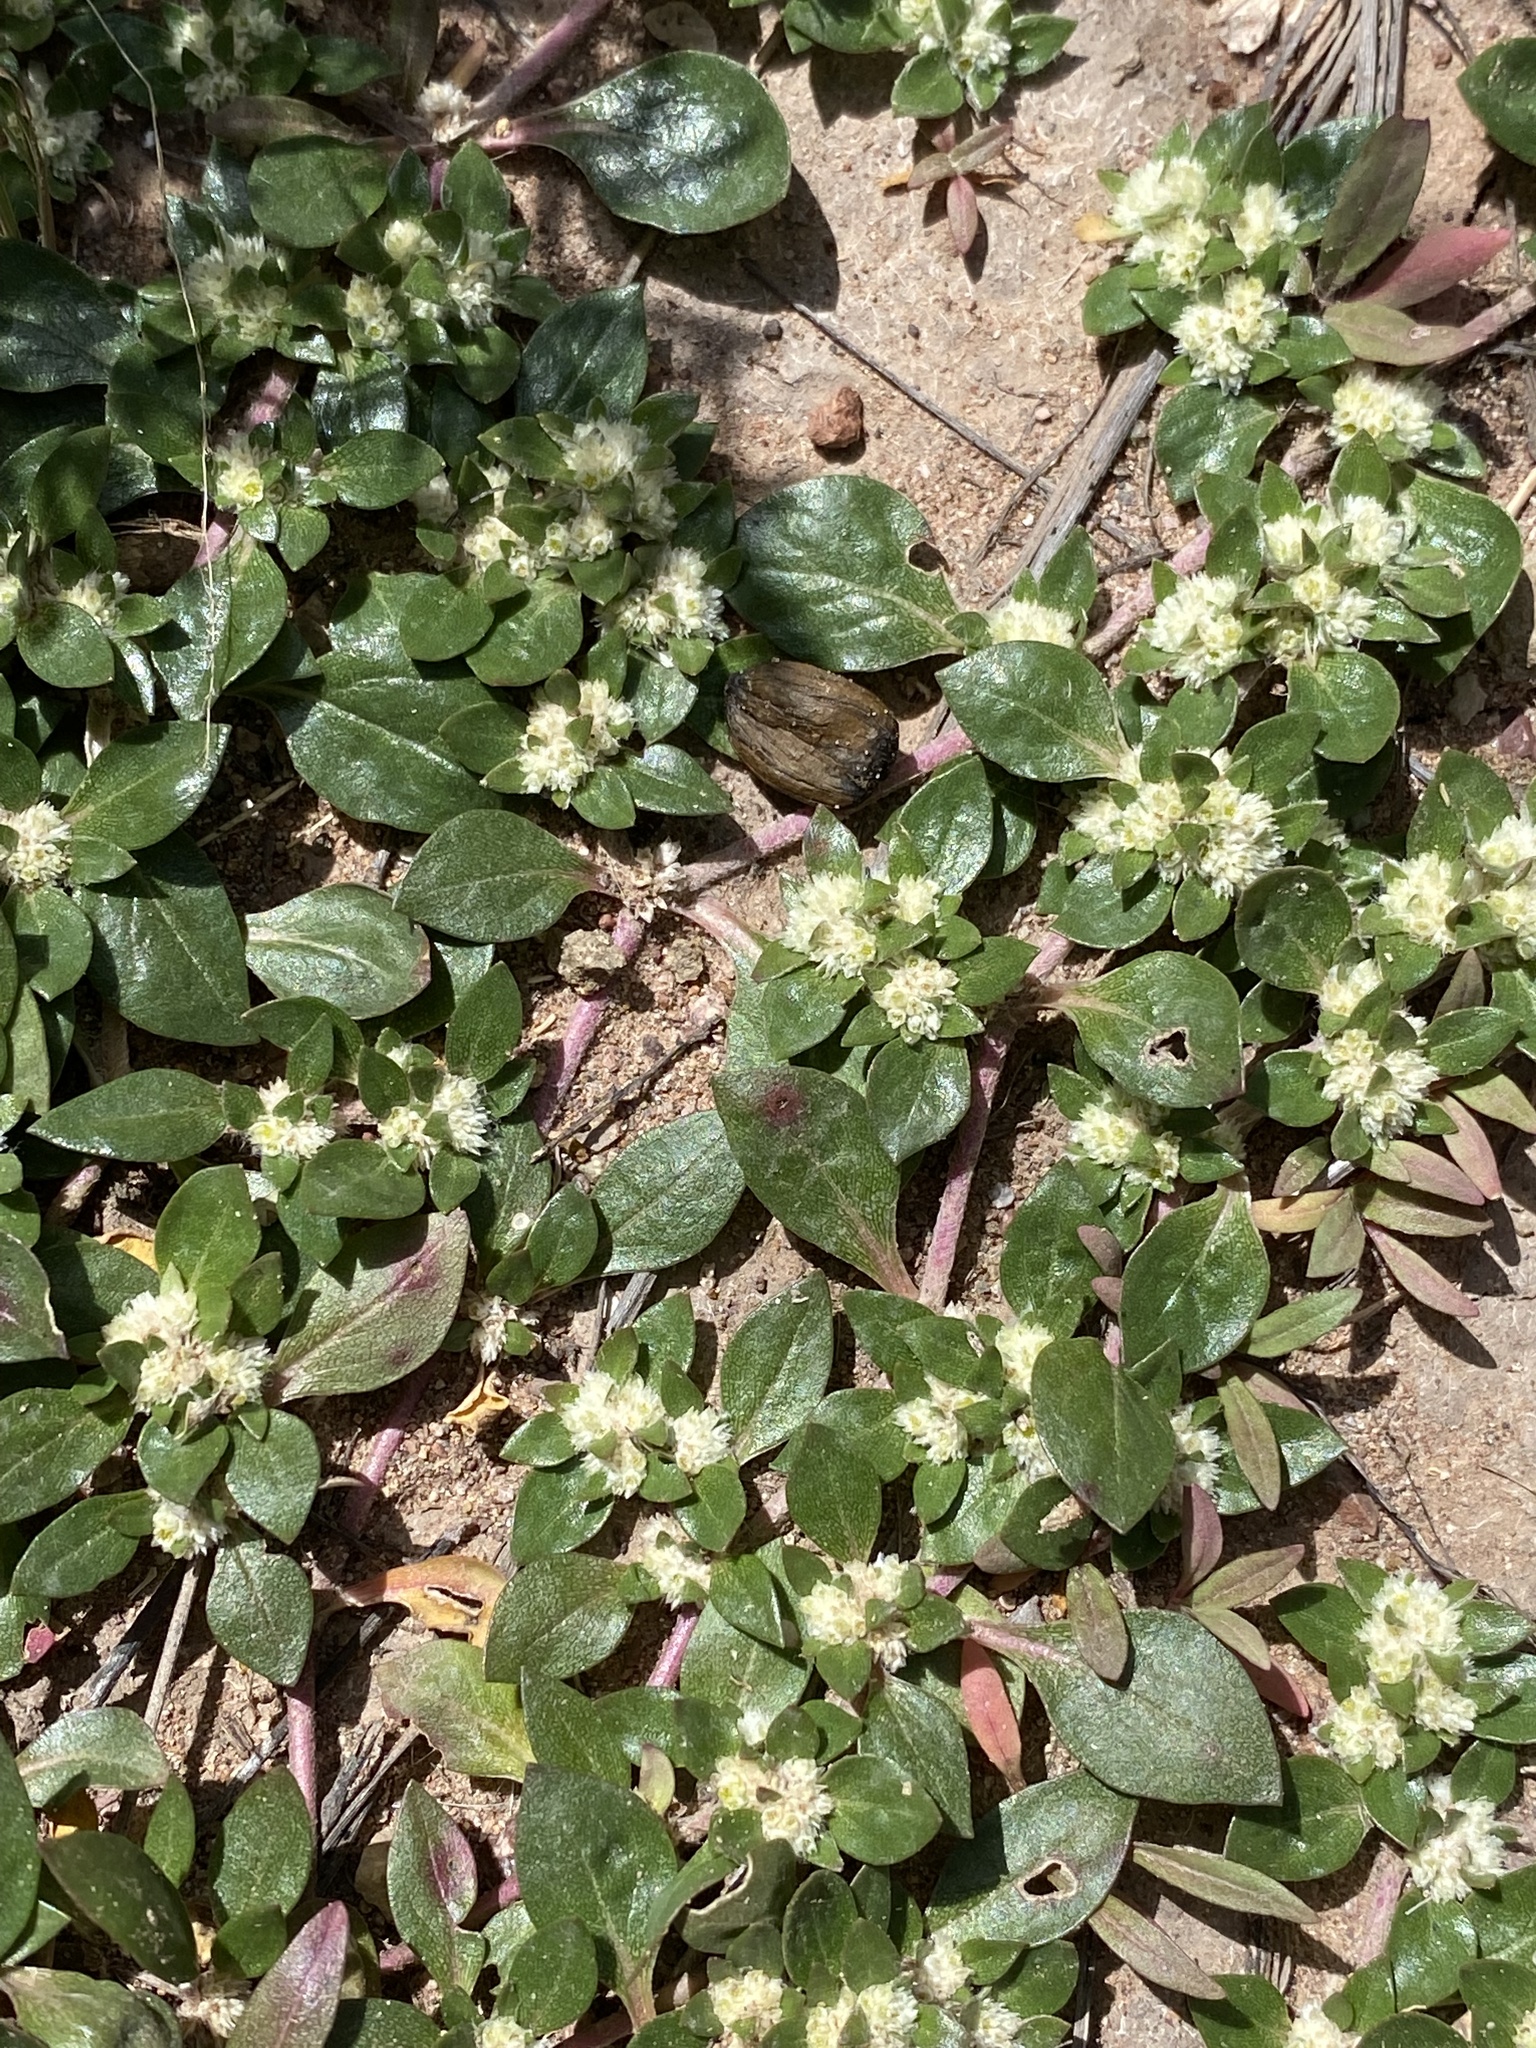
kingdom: Plantae
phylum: Tracheophyta
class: Magnoliopsida
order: Caryophyllales
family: Amaranthaceae
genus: Guilleminea
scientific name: Guilleminea densa
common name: Small matweed
